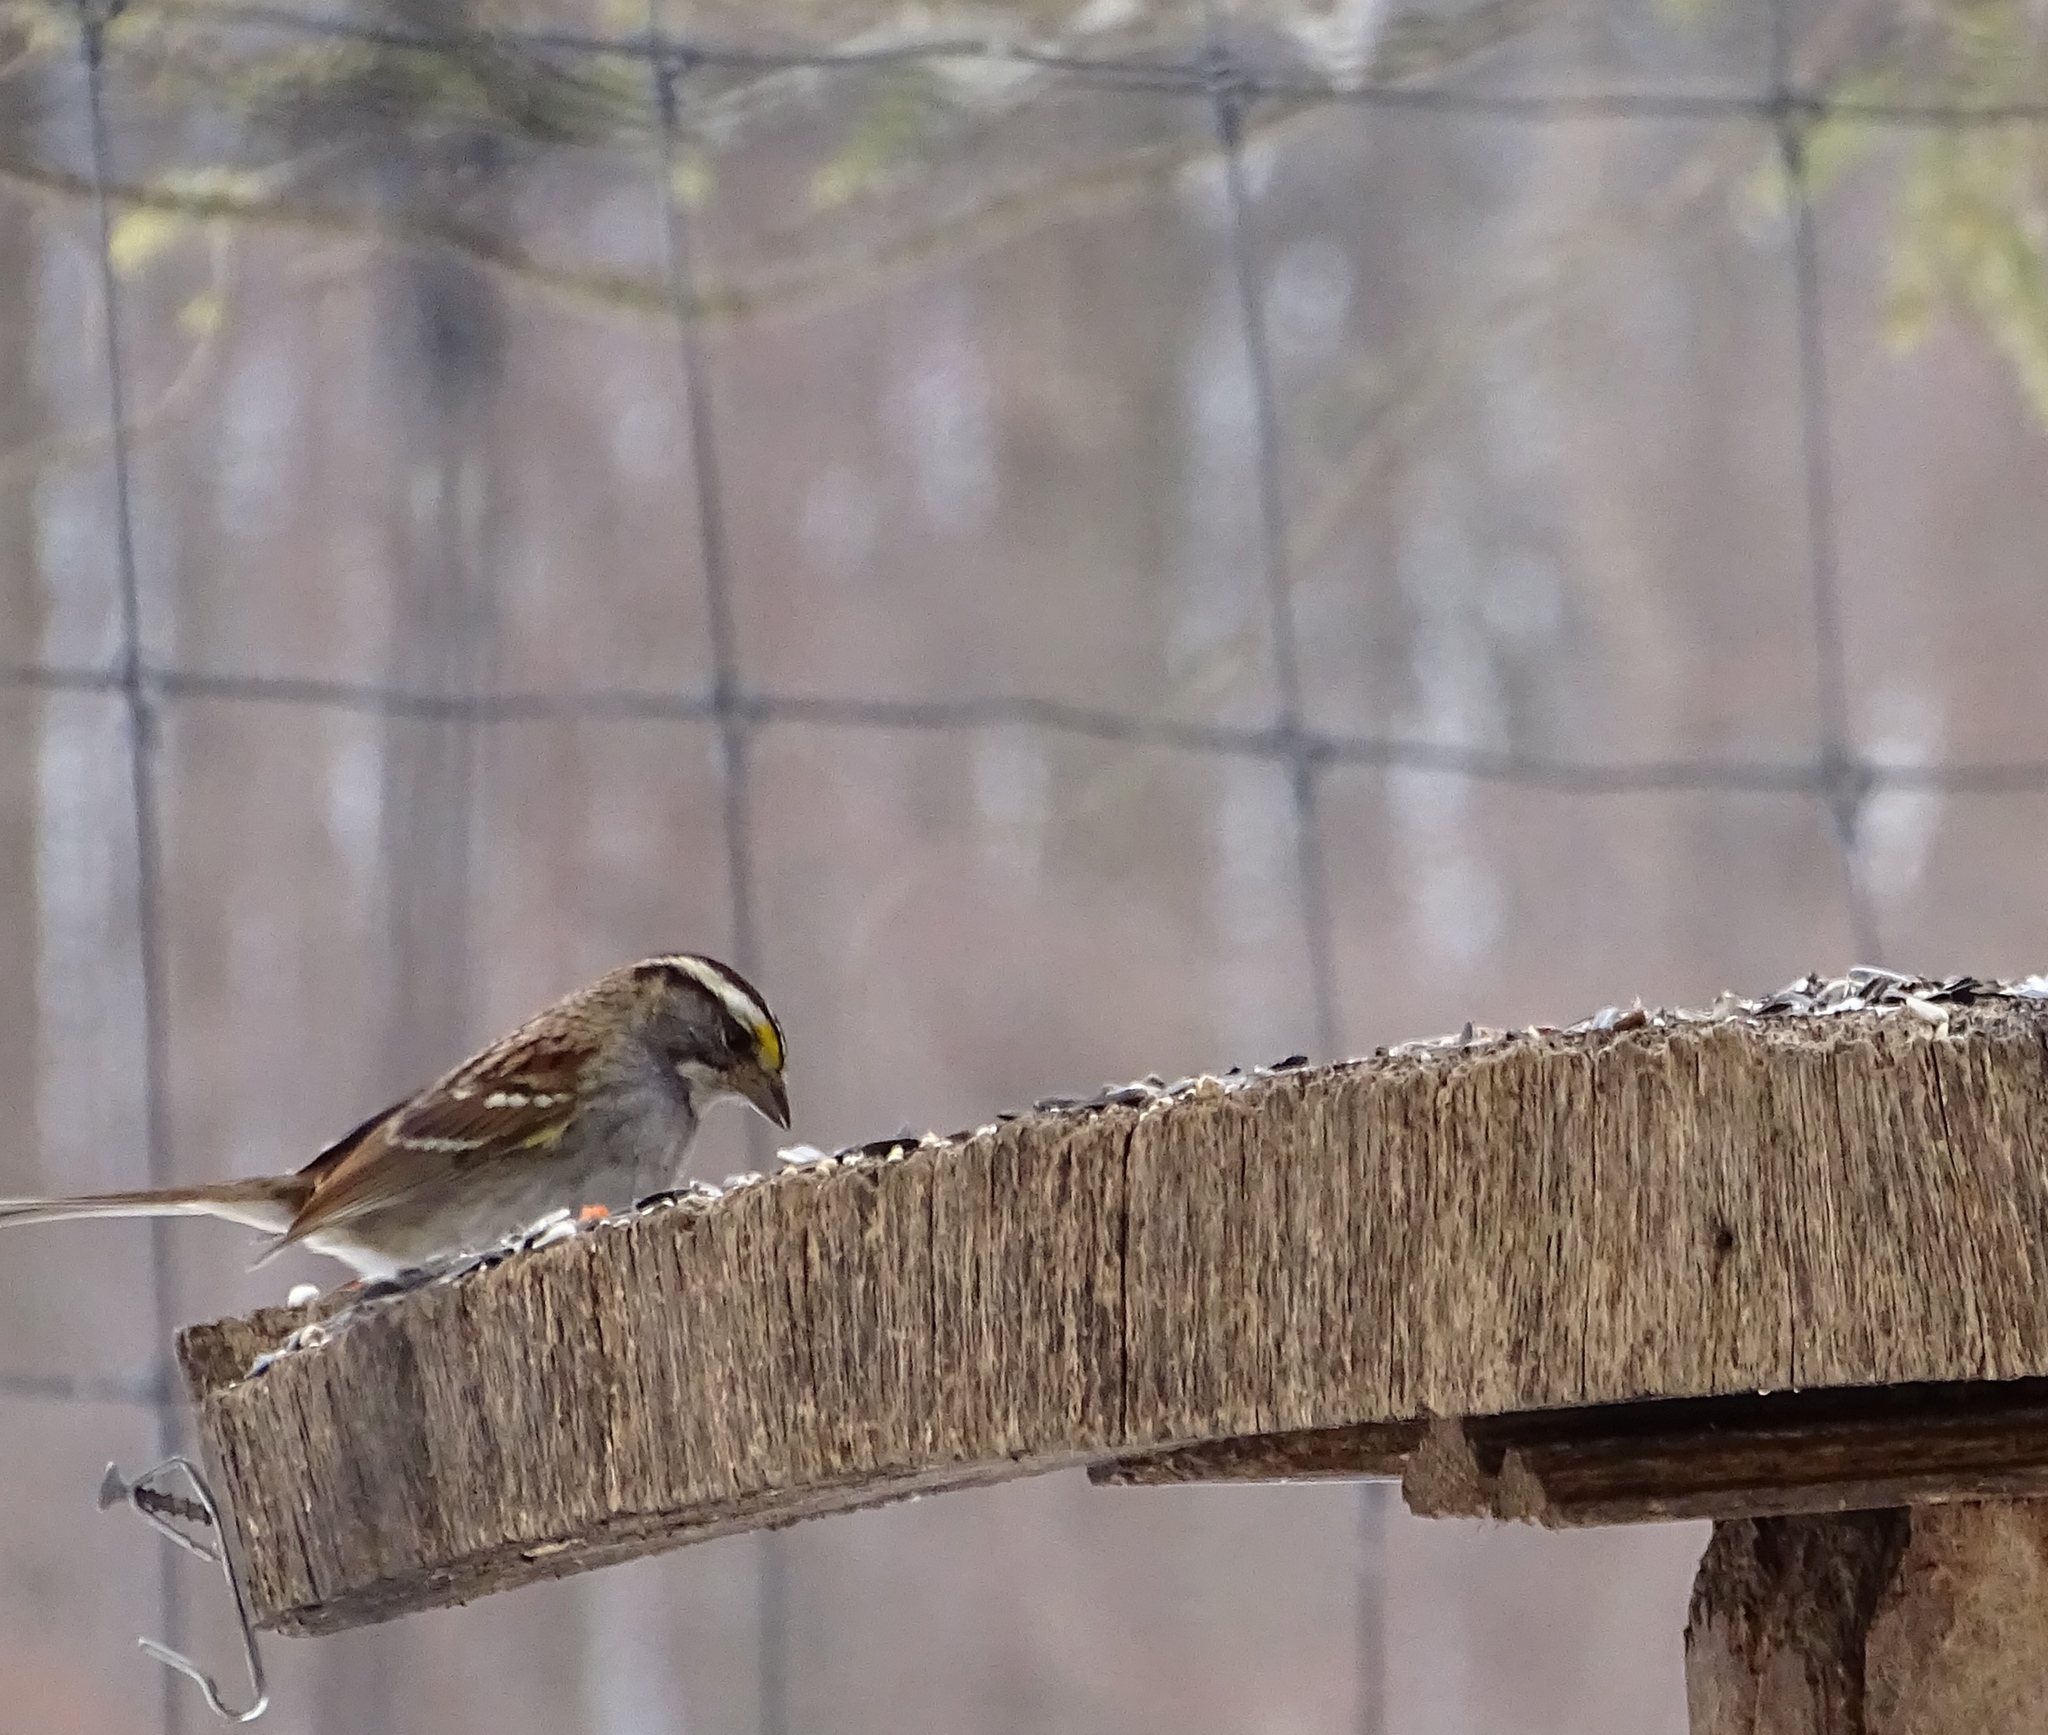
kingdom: Animalia
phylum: Chordata
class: Aves
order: Passeriformes
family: Passerellidae
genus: Zonotrichia
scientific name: Zonotrichia albicollis
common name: White-throated sparrow
